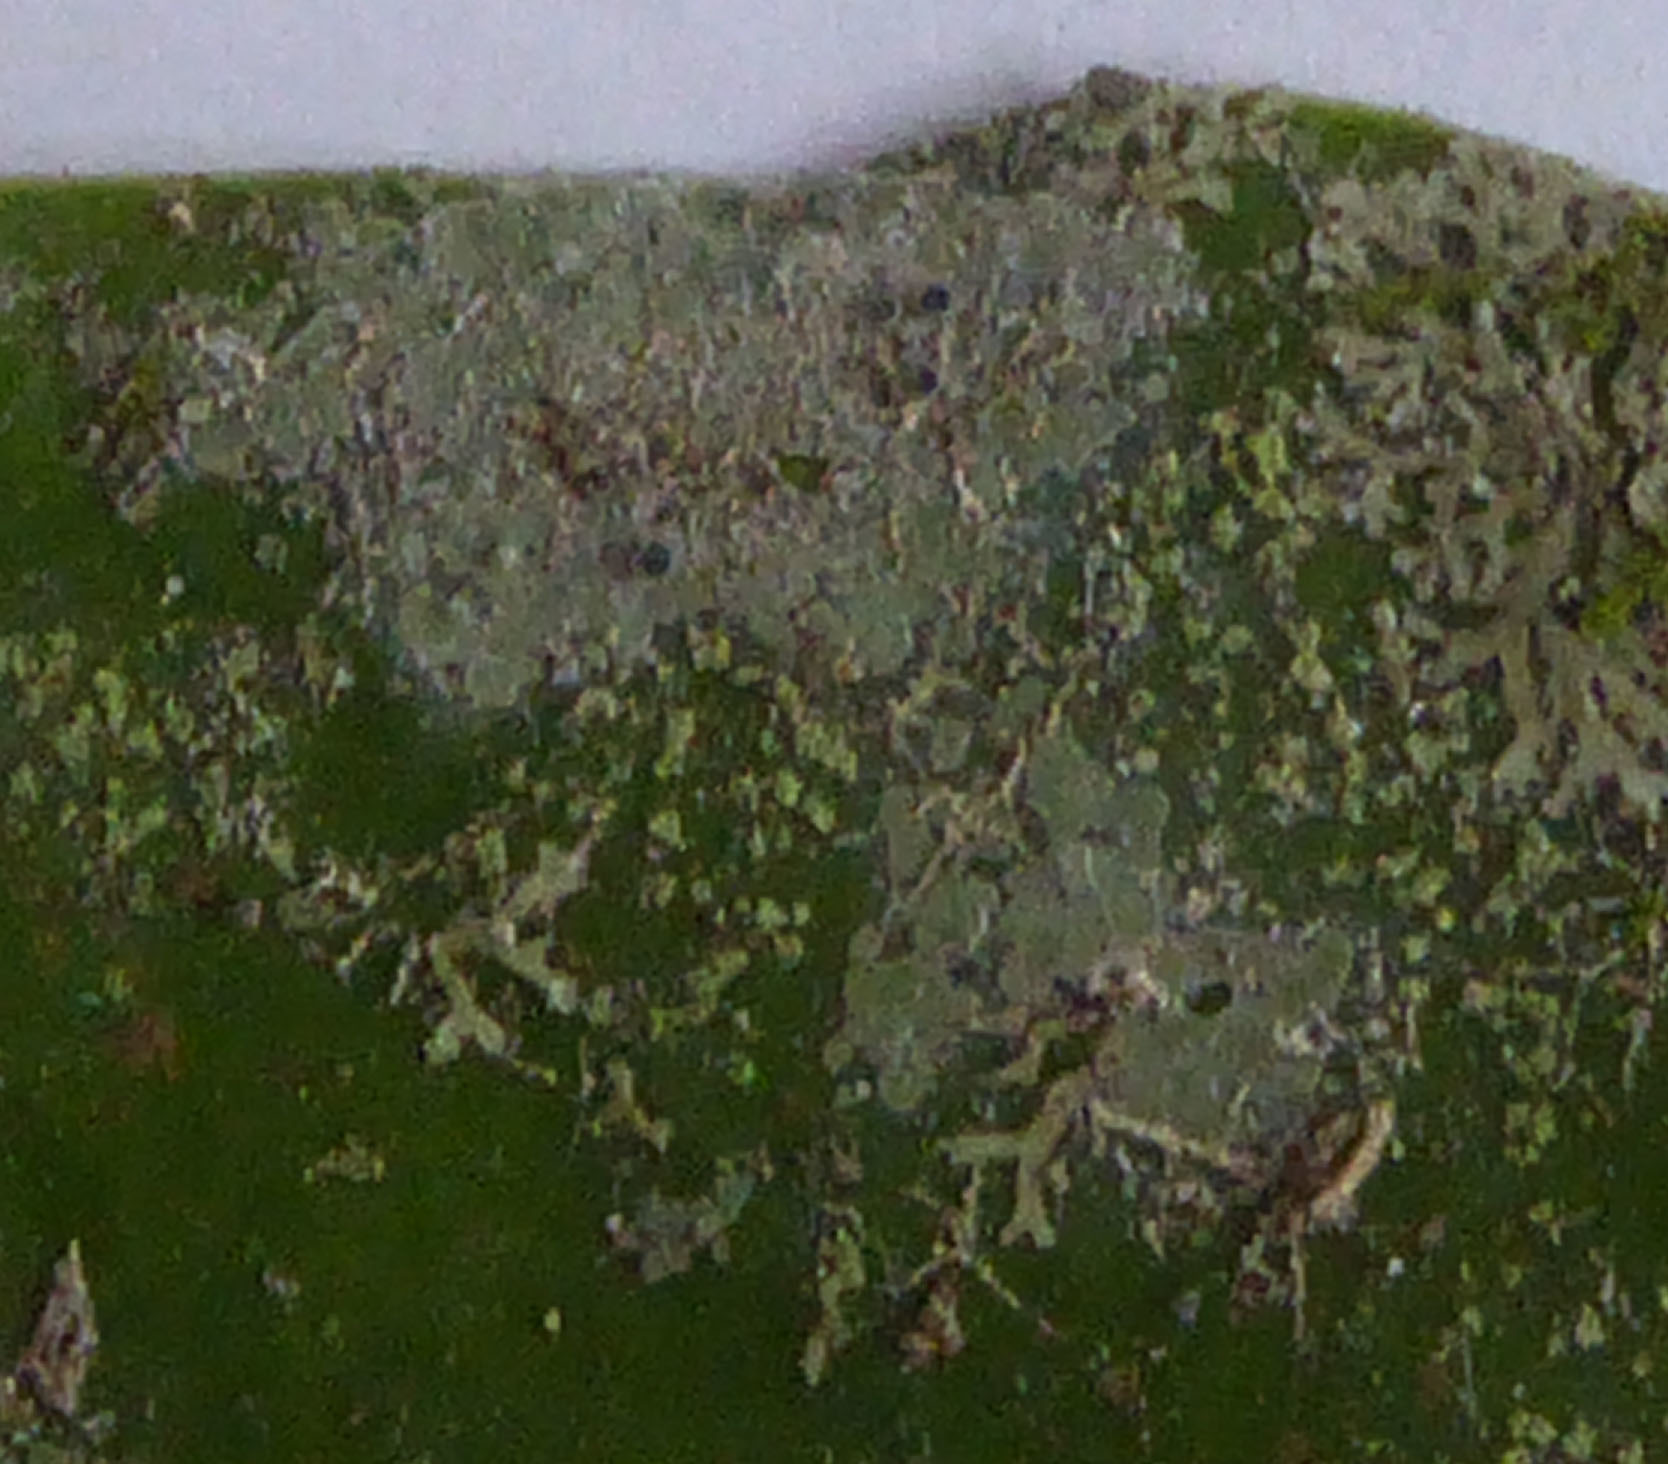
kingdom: Fungi
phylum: Ascomycota
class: Lecanoromycetes
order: Lecanorales
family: Byssolomataceae
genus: Calopadia
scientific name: Calopadia subcoerulescens
